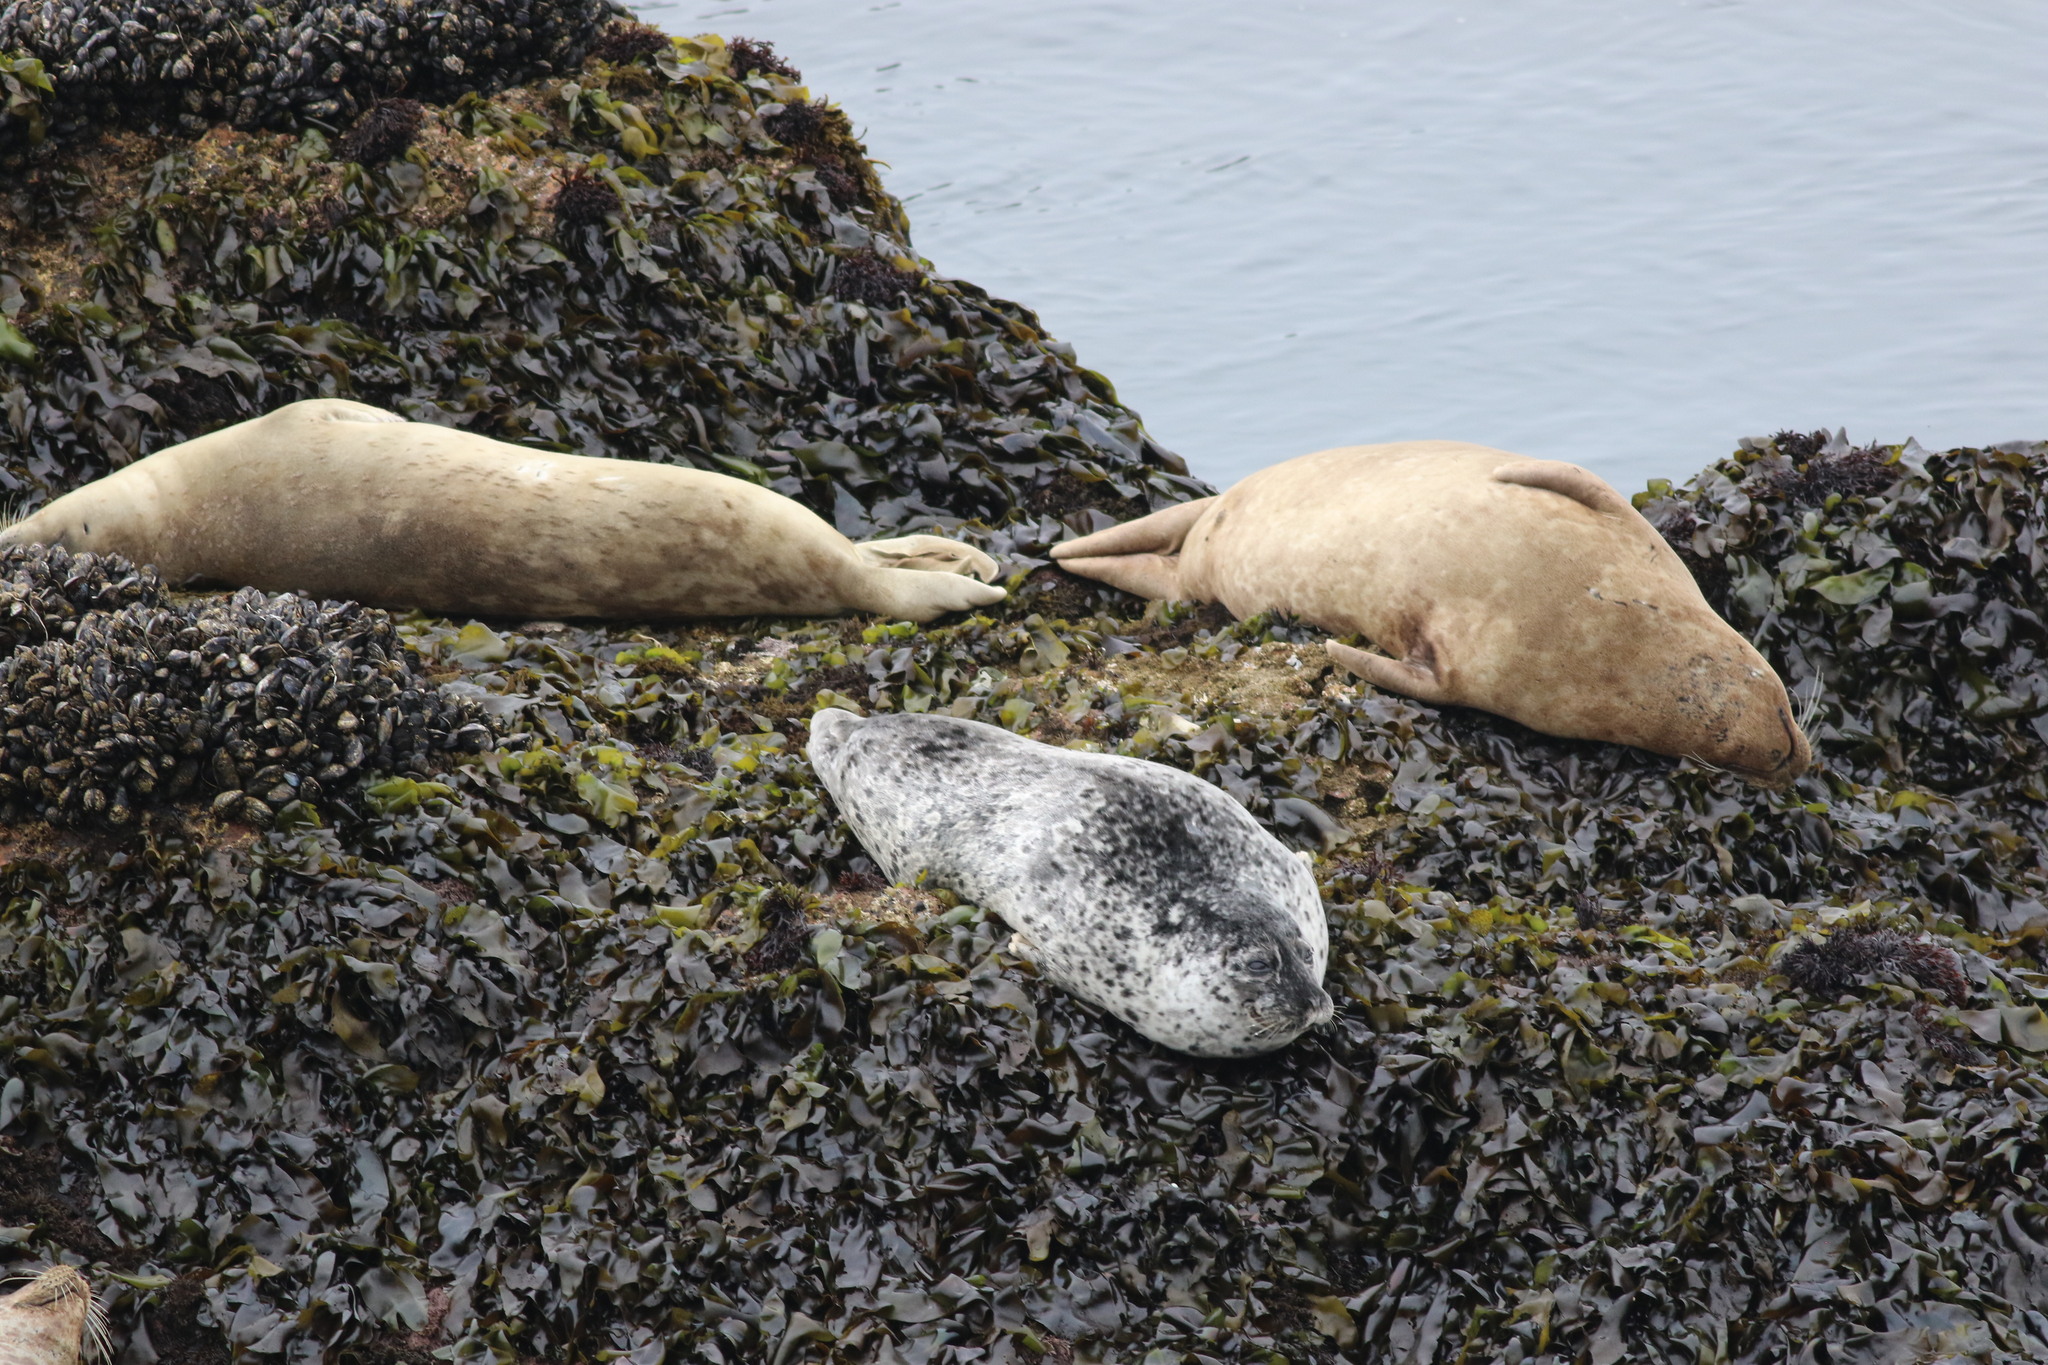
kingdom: Animalia
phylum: Chordata
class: Mammalia
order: Carnivora
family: Phocidae
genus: Phoca
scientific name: Phoca vitulina
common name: Harbor seal
